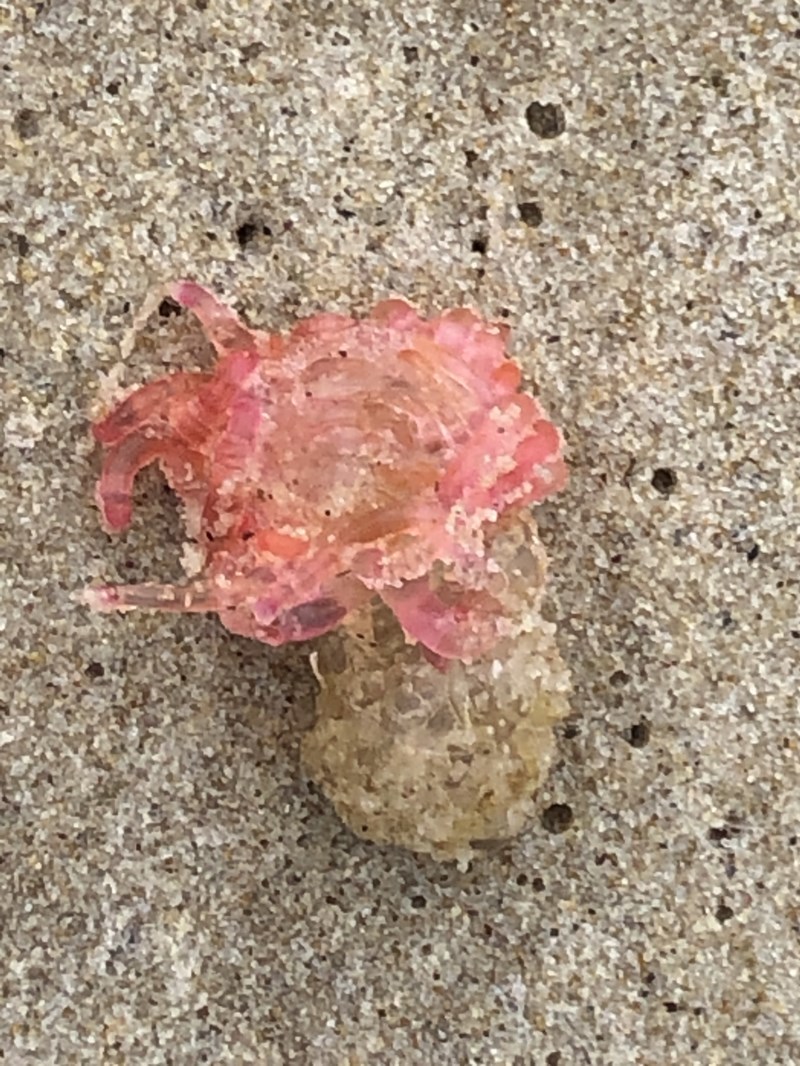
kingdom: Animalia
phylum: Cnidaria
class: Hydrozoa
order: Siphonophorae
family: Physophoridae
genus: Physophora
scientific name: Physophora hydrostatica
